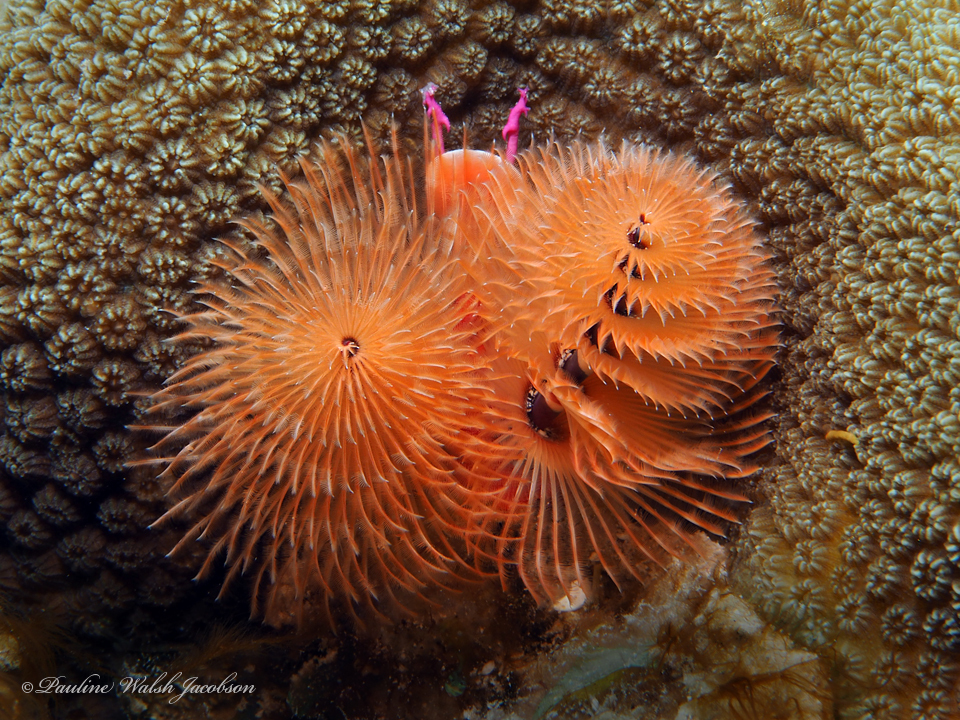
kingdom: Animalia
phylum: Annelida
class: Polychaeta
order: Sabellida
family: Serpulidae
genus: Spirobranchus
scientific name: Spirobranchus giganteus
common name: Christmas tree worm
